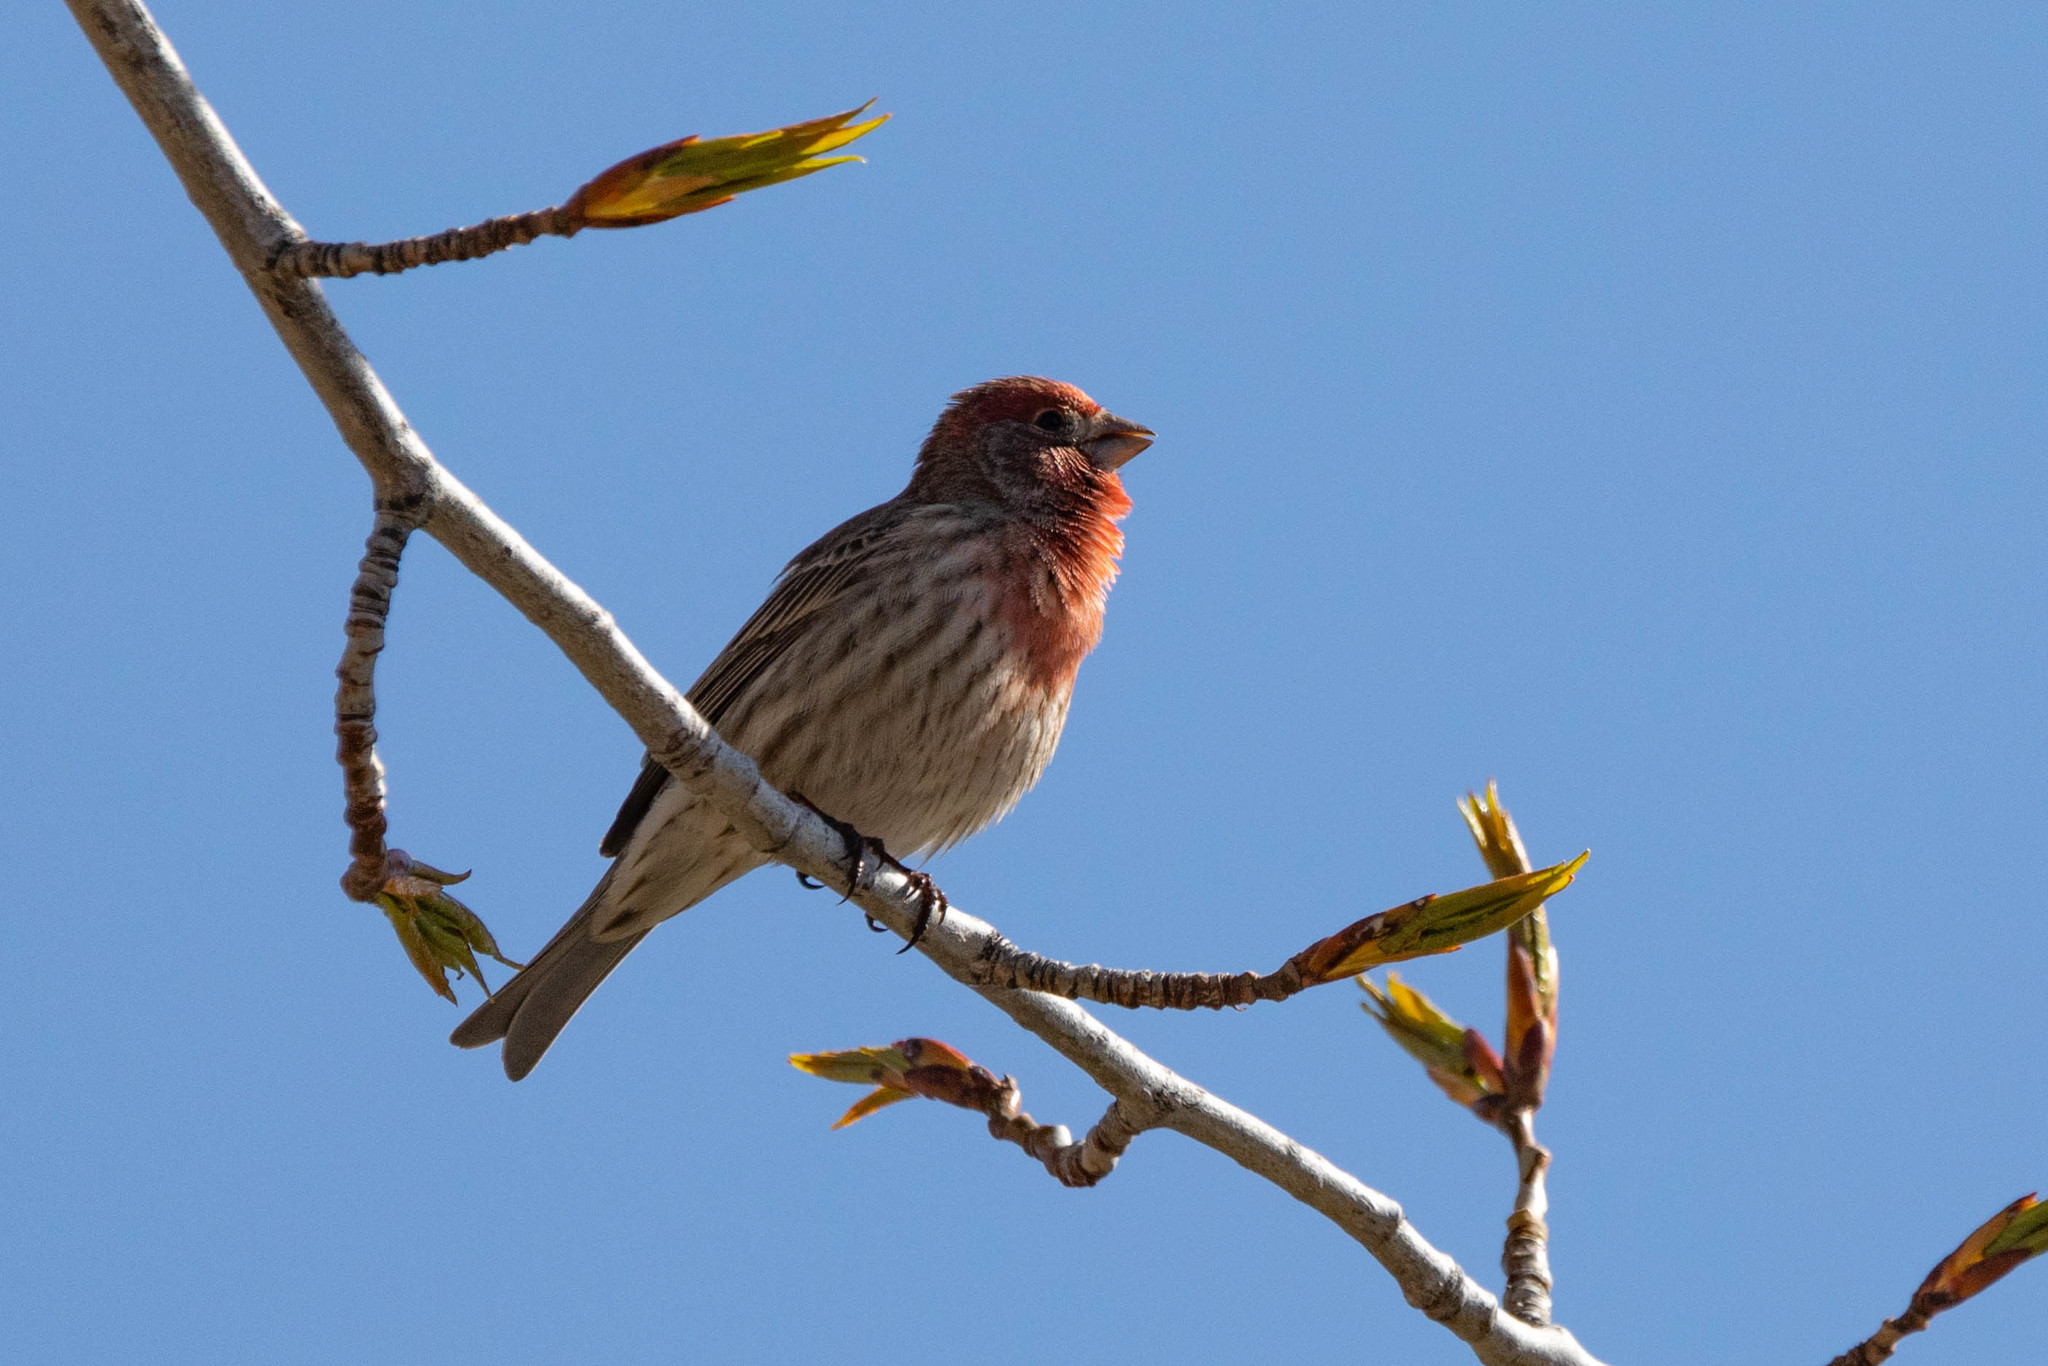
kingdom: Animalia
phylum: Chordata
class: Aves
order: Passeriformes
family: Fringillidae
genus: Haemorhous
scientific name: Haemorhous mexicanus
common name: House finch
